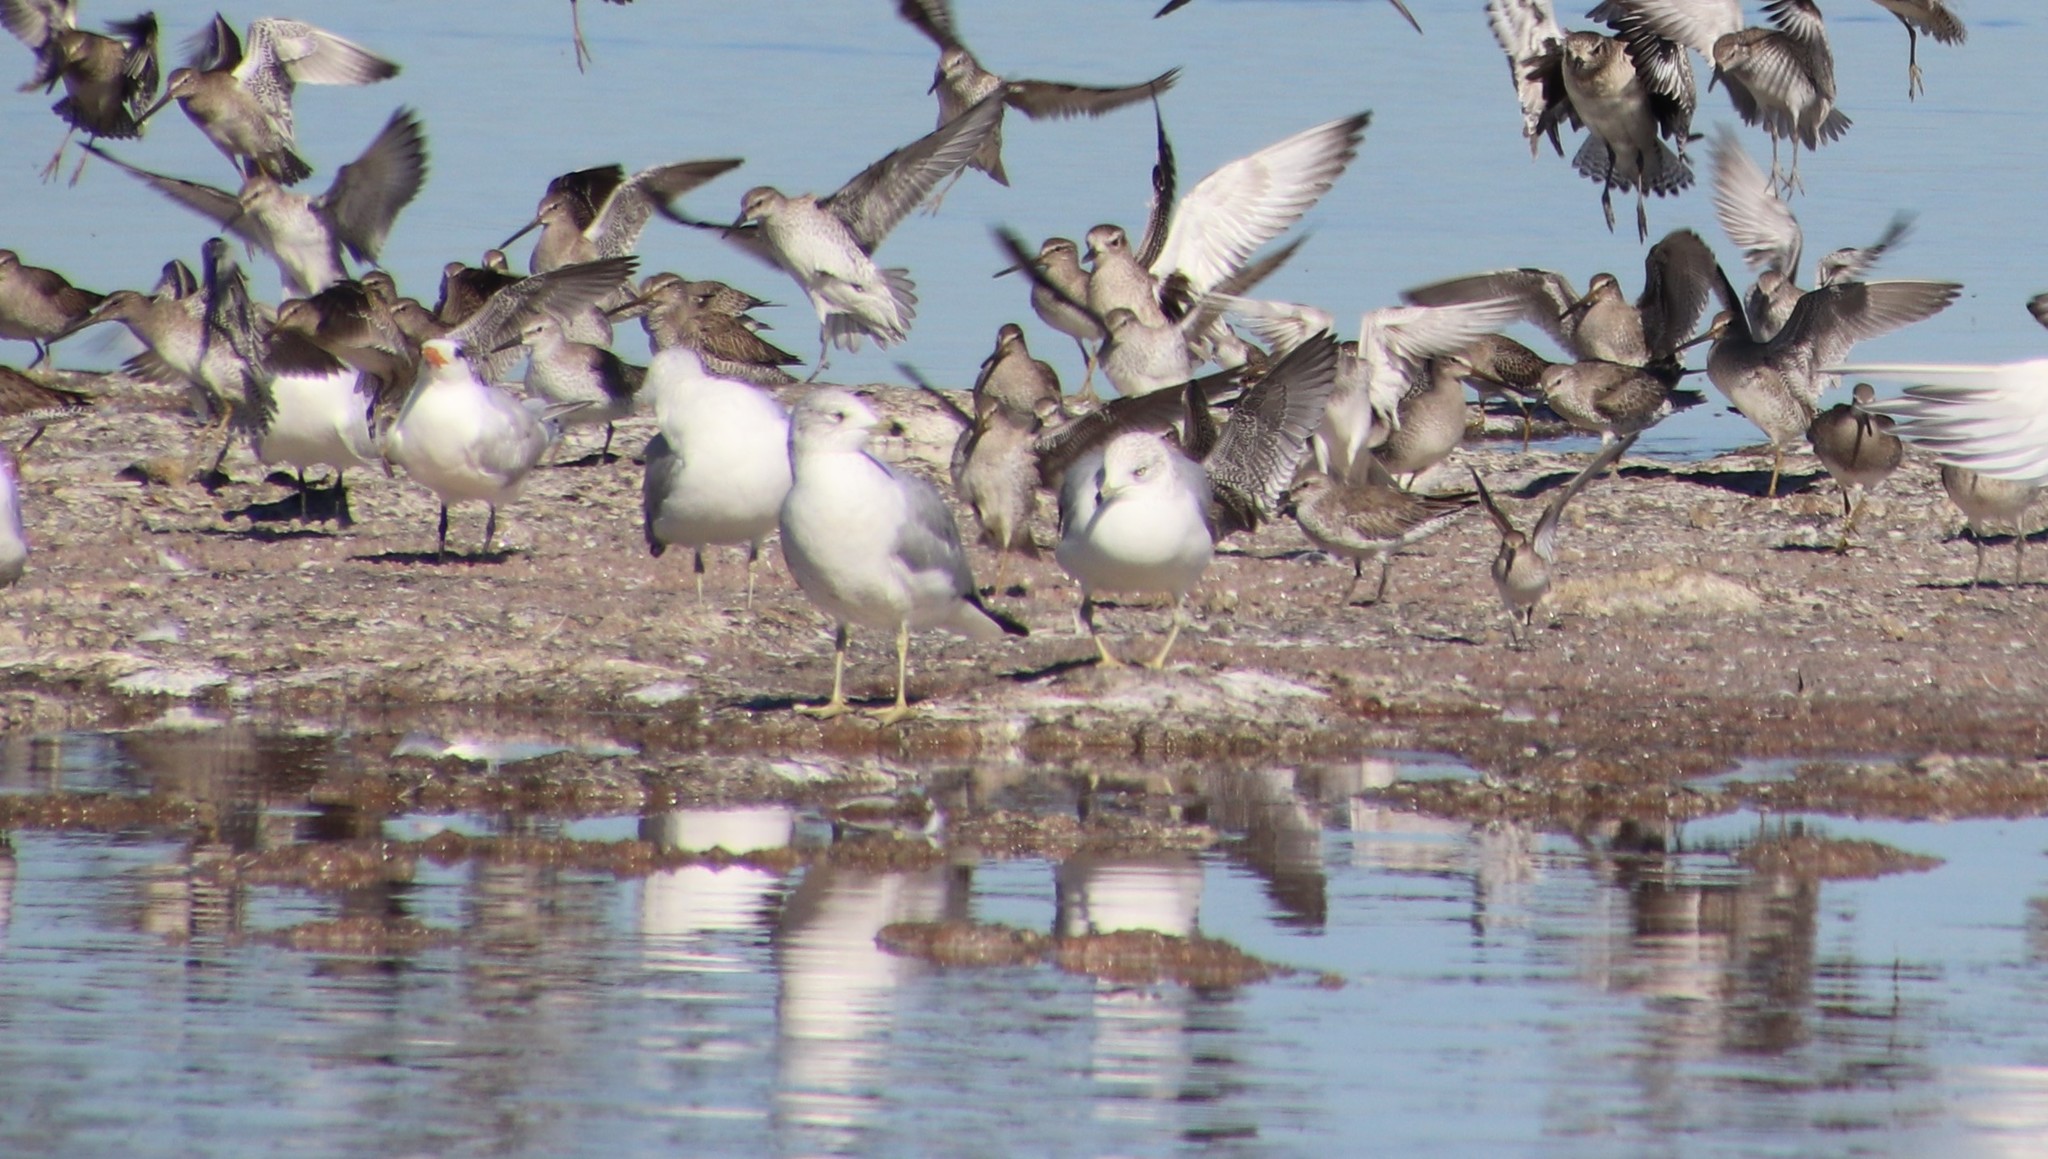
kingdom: Animalia
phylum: Chordata
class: Aves
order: Charadriiformes
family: Laridae
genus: Larus
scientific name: Larus delawarensis
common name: Ring-billed gull
